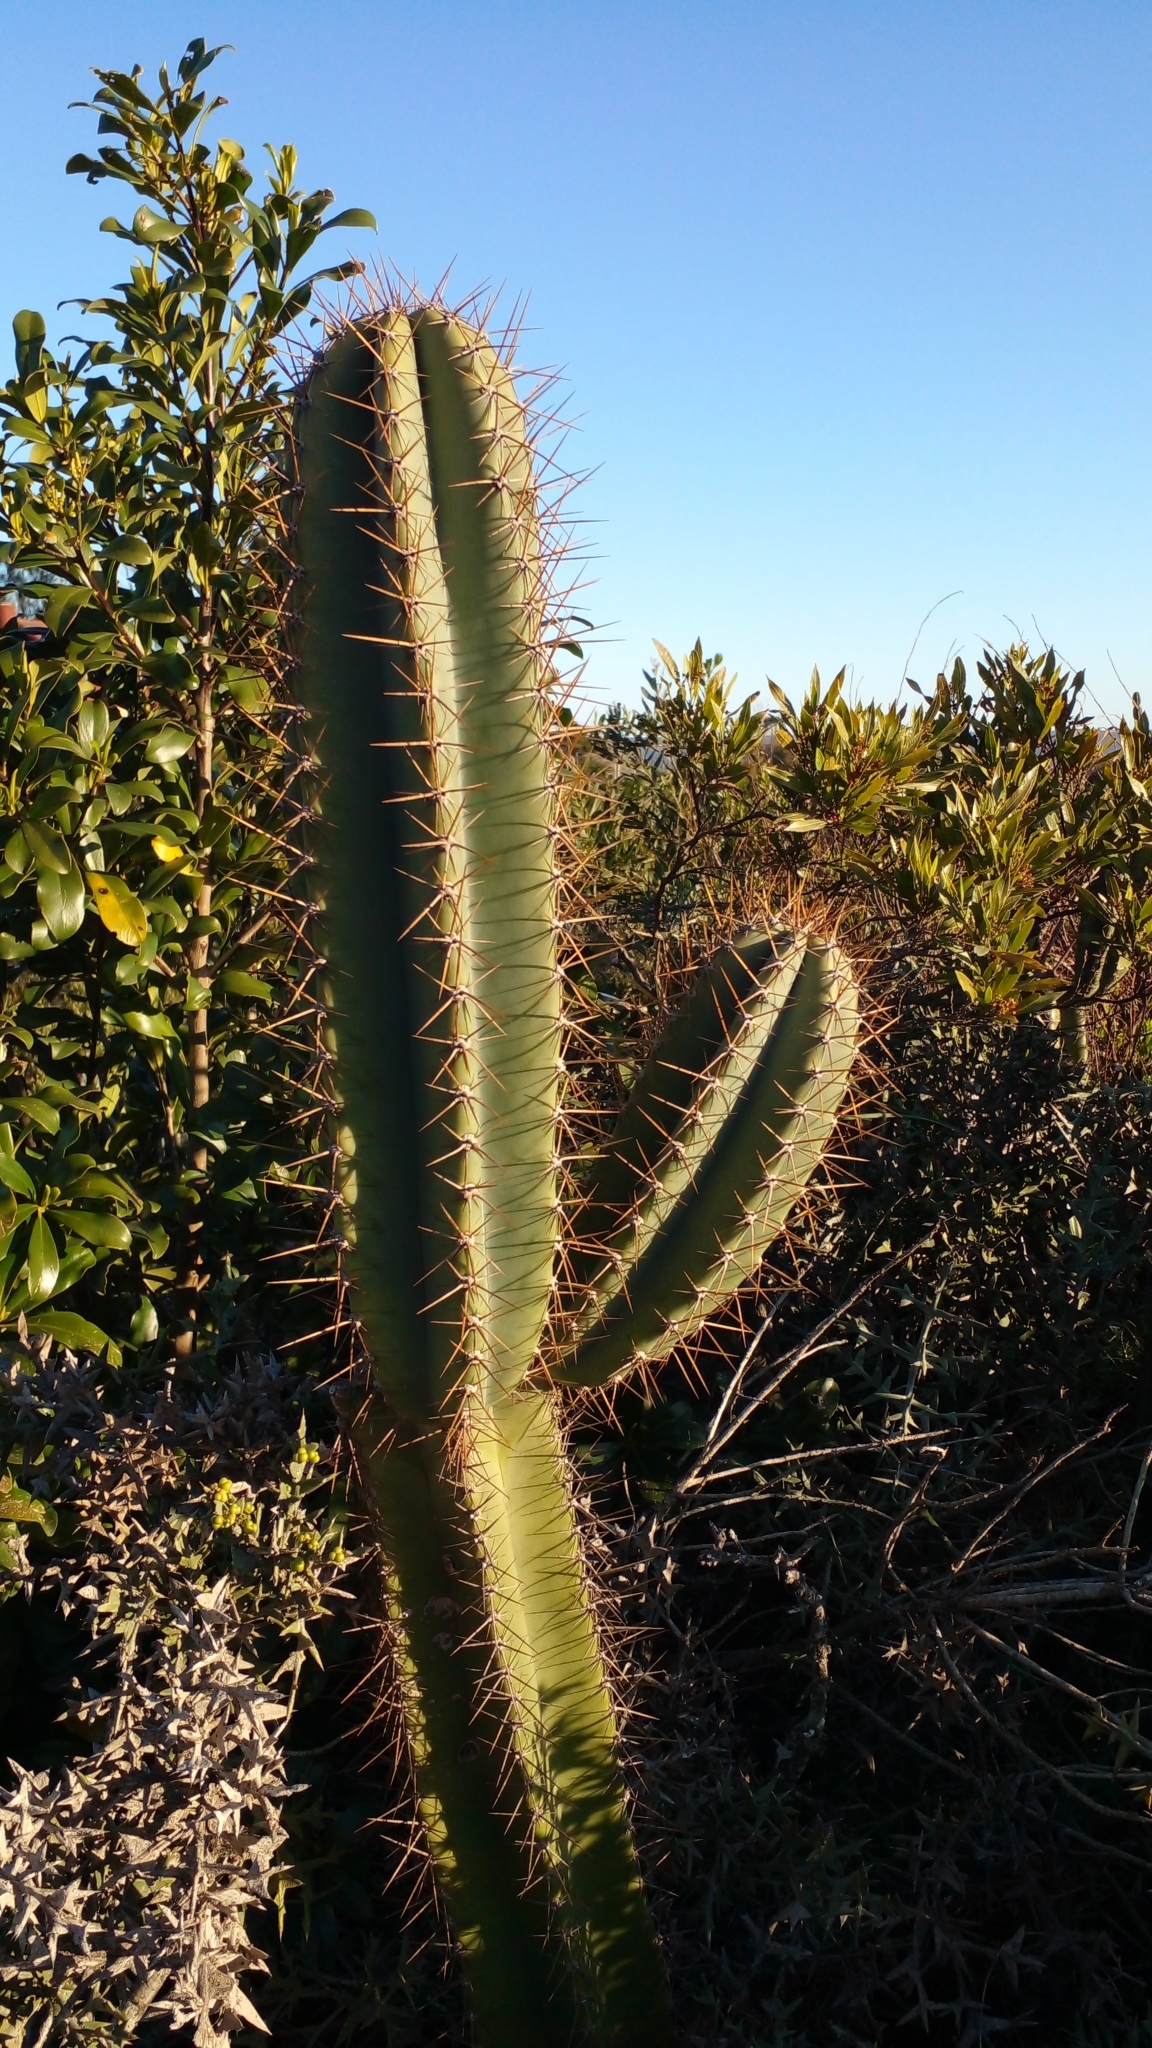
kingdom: Plantae
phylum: Tracheophyta
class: Magnoliopsida
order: Caryophyllales
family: Cactaceae
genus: Cereus
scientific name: Cereus hildmannianus
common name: Hedge cactus
